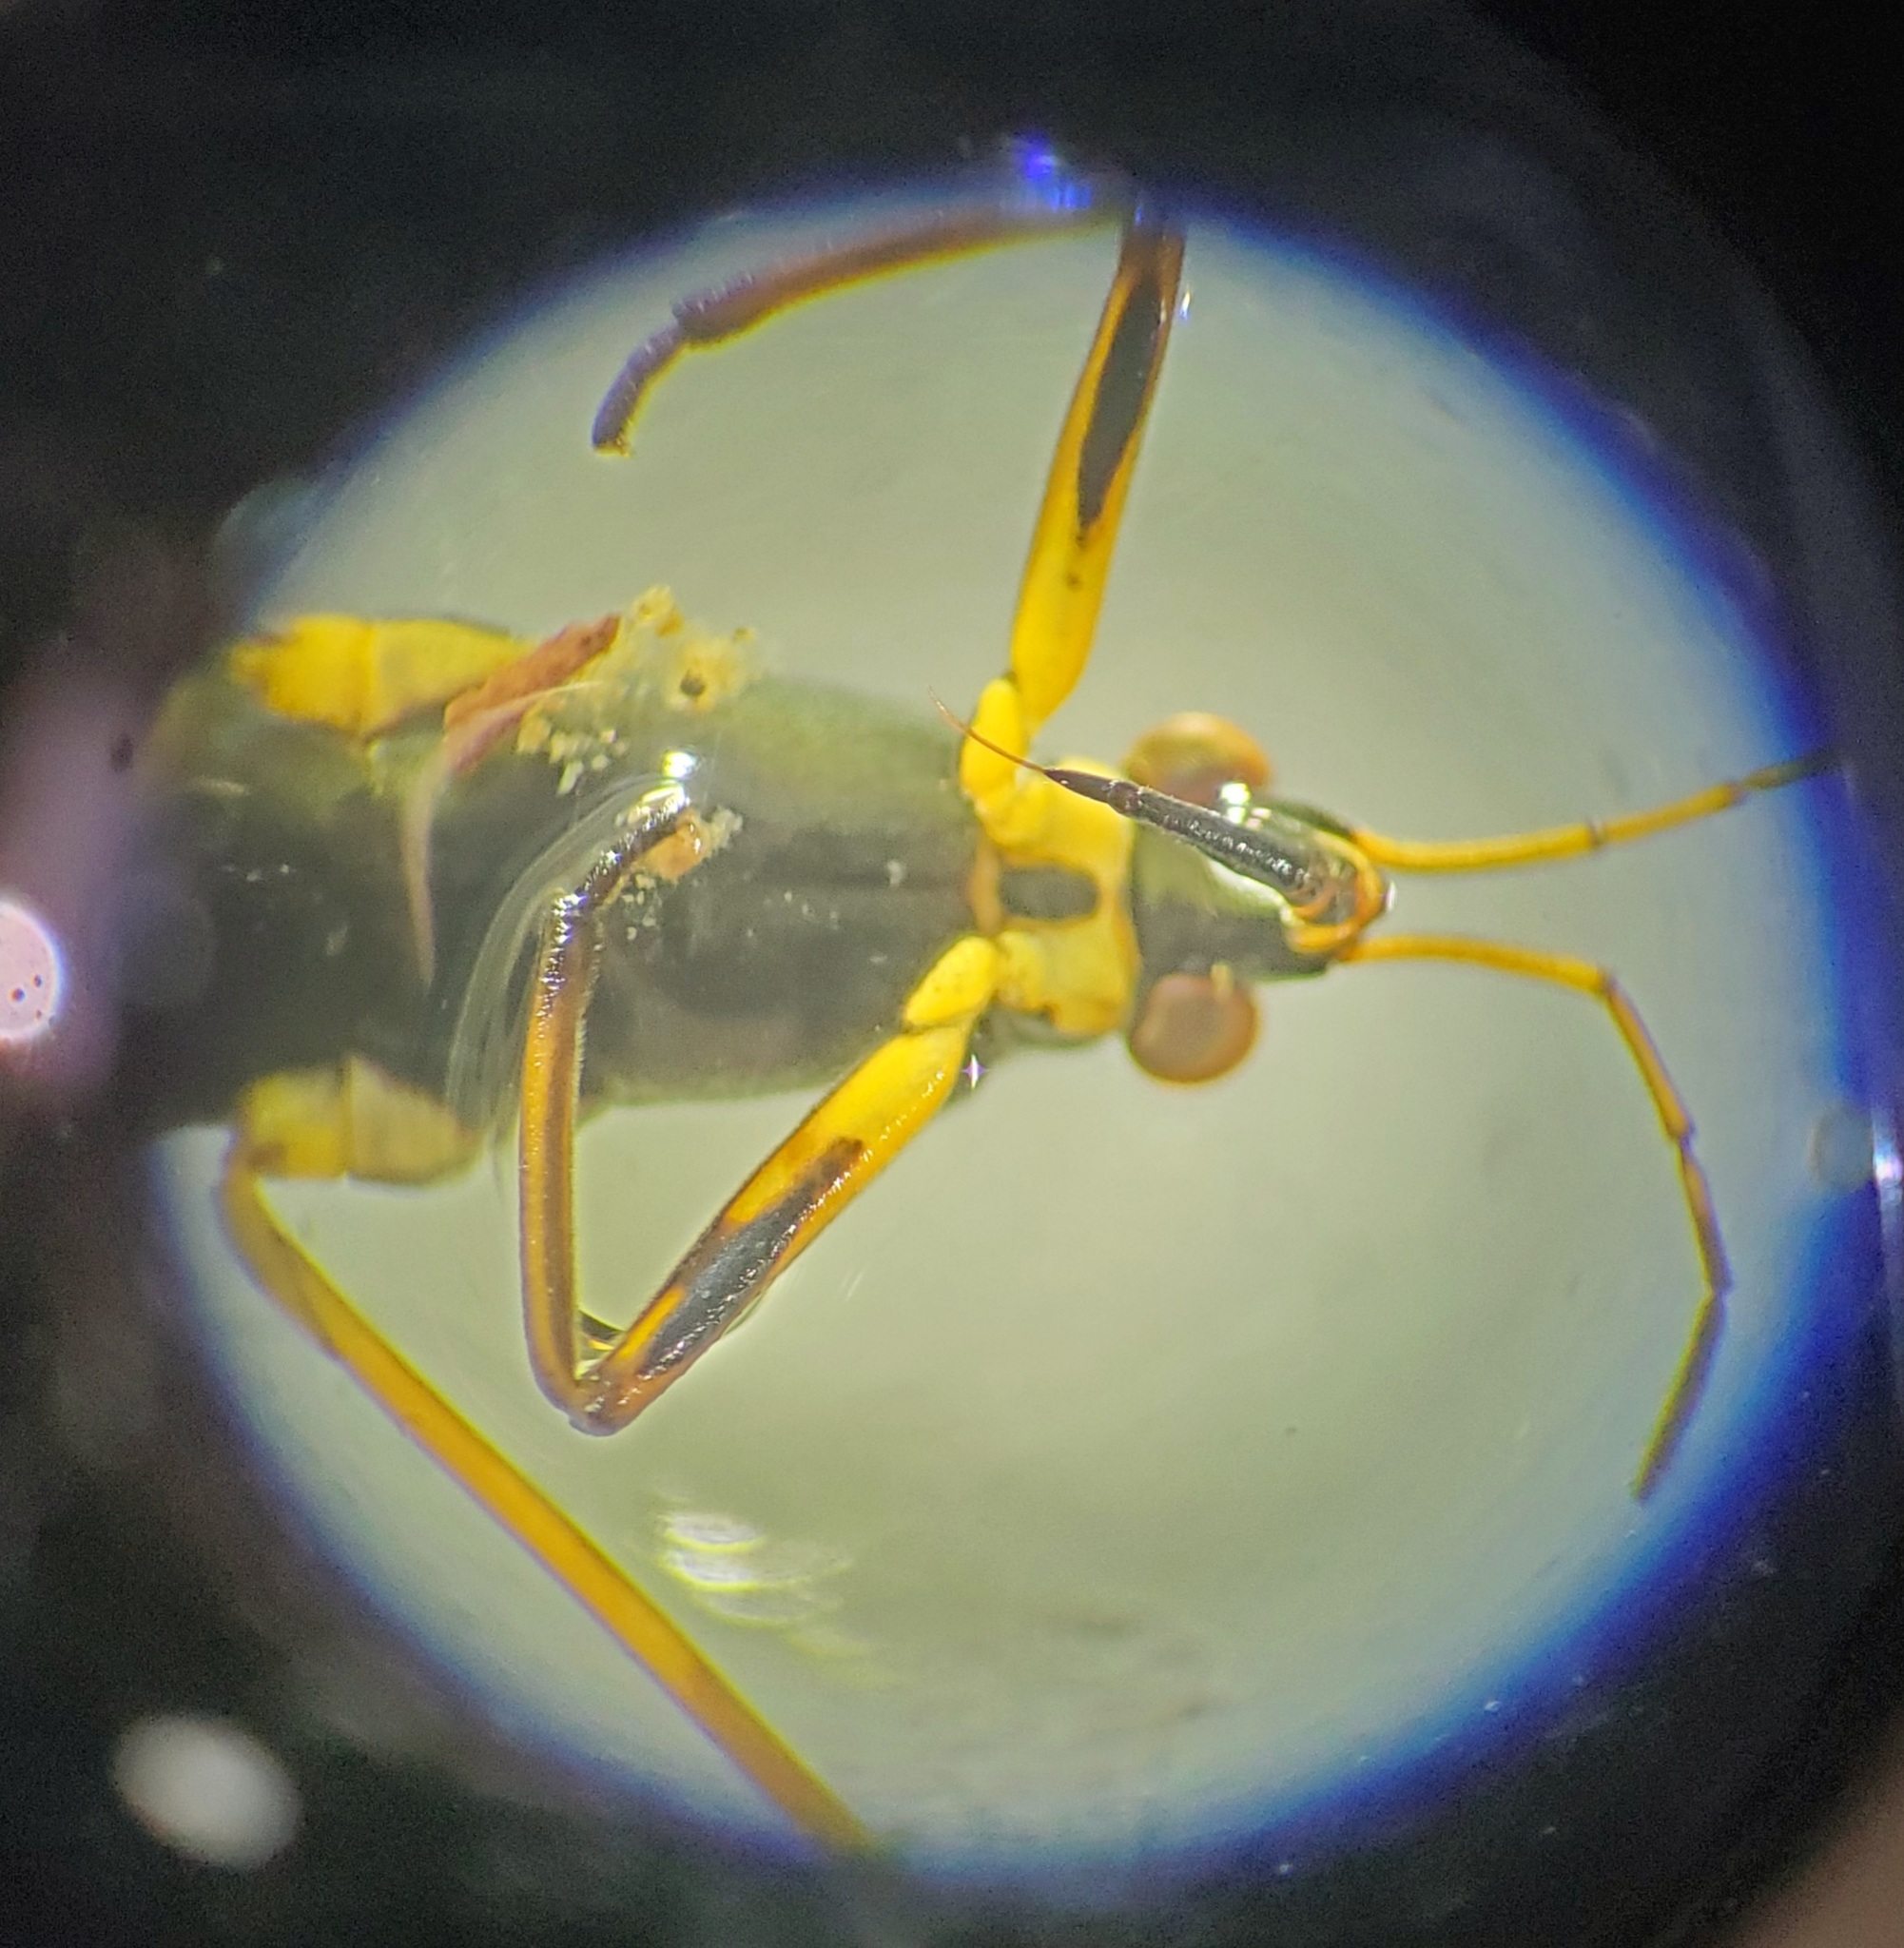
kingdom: Animalia
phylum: Arthropoda
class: Insecta
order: Hemiptera
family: Gerridae
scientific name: Gerridae
